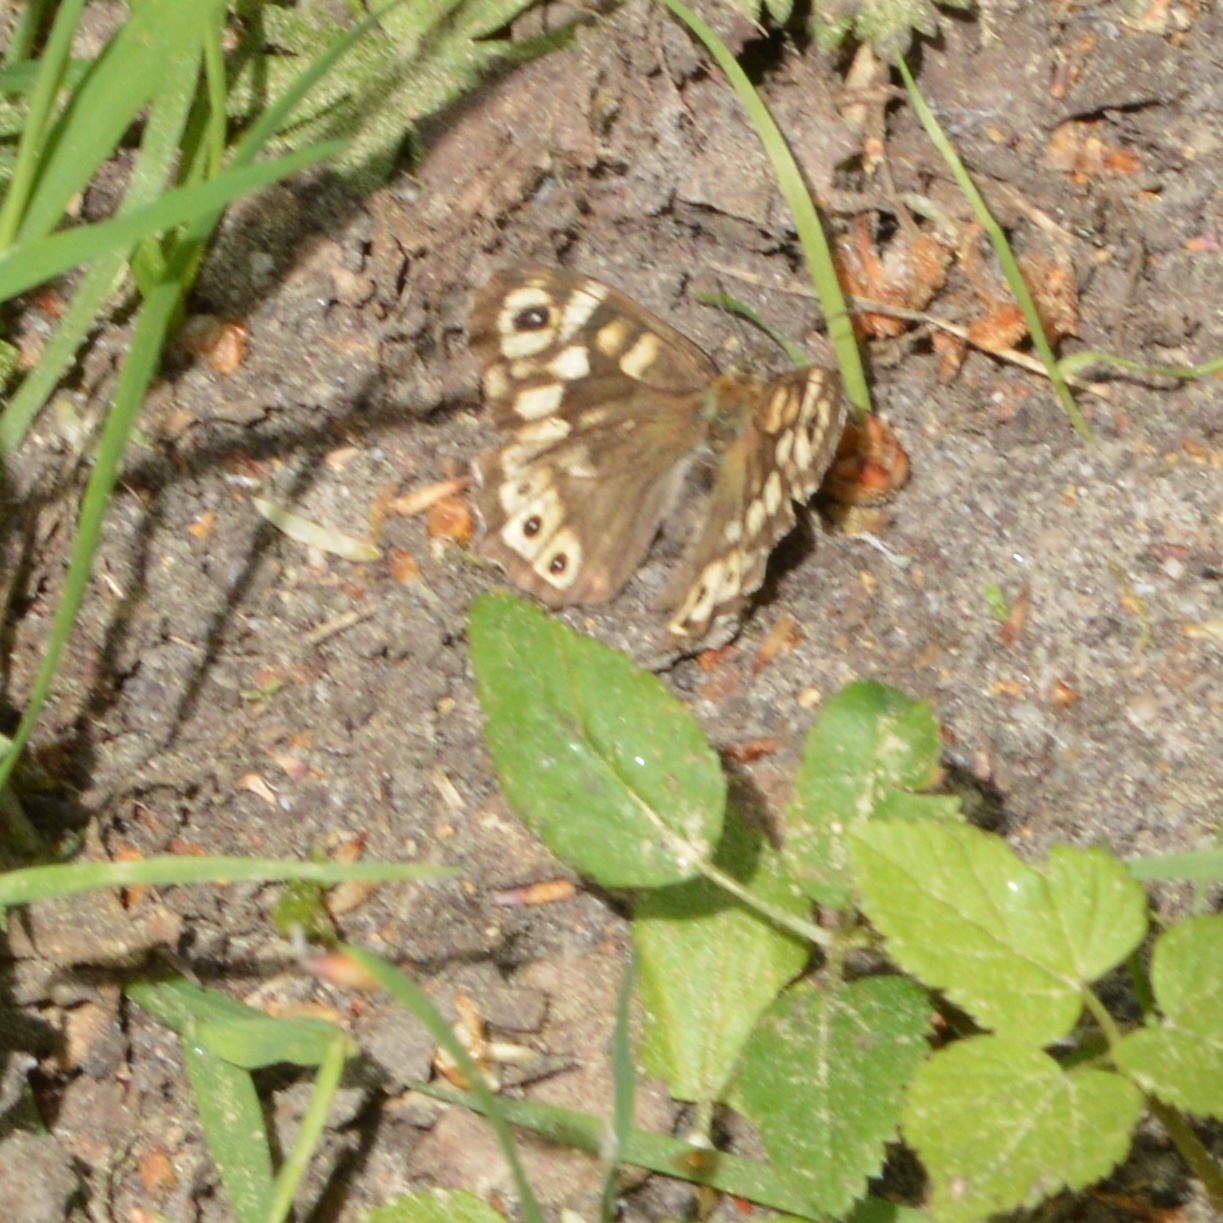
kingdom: Animalia
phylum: Arthropoda
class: Insecta
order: Lepidoptera
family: Nymphalidae
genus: Pararge
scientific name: Pararge aegeria
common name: Speckled wood
